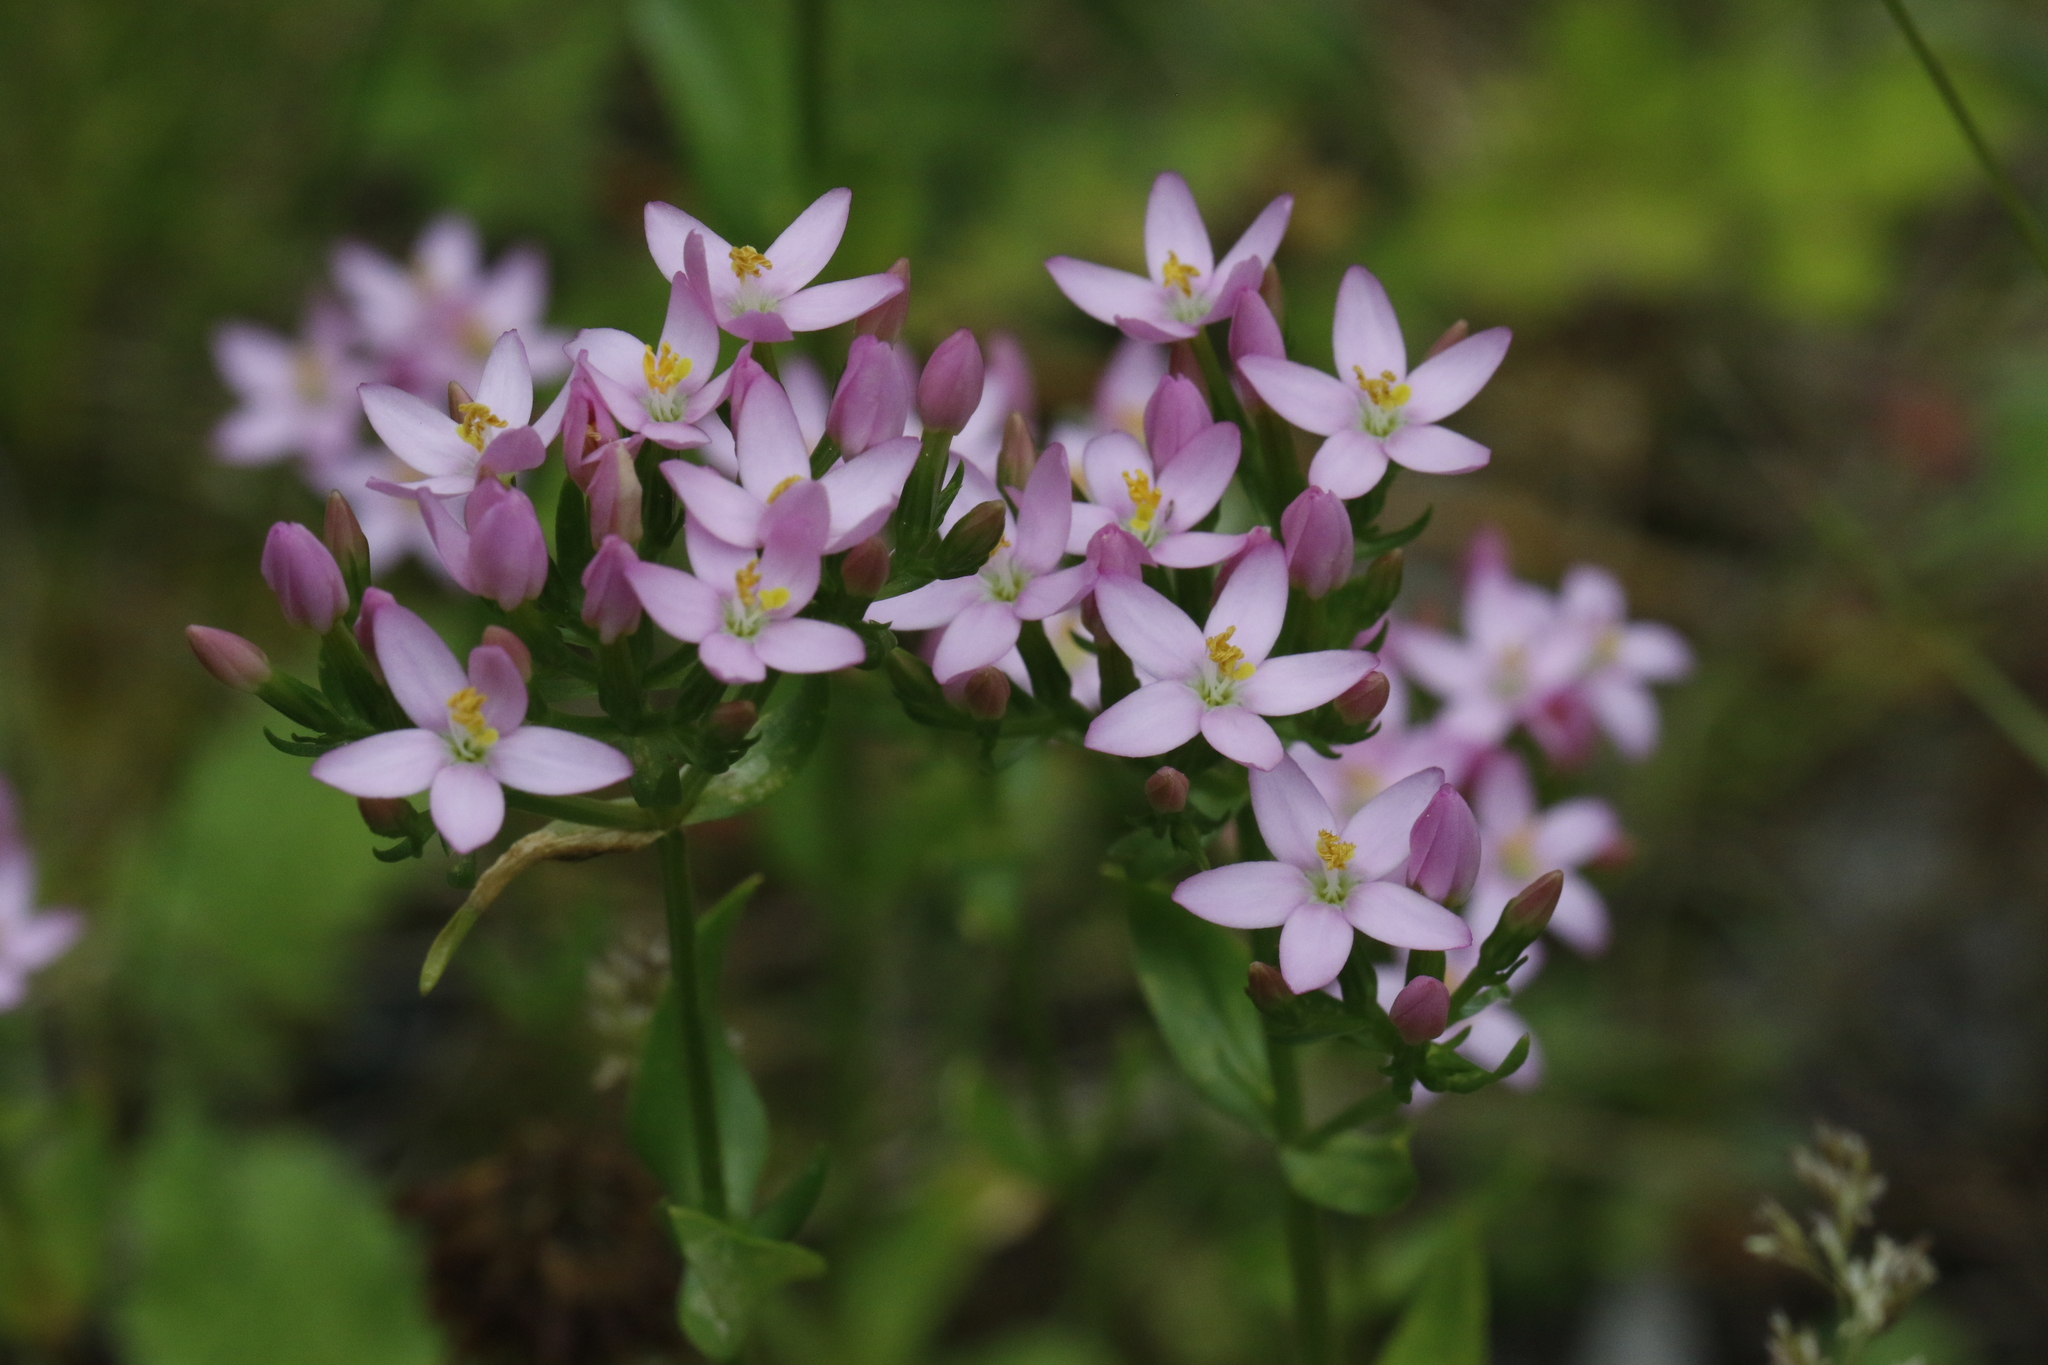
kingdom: Plantae
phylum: Tracheophyta
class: Magnoliopsida
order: Gentianales
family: Gentianaceae
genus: Centaurium
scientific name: Centaurium erythraea
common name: Common centaury
